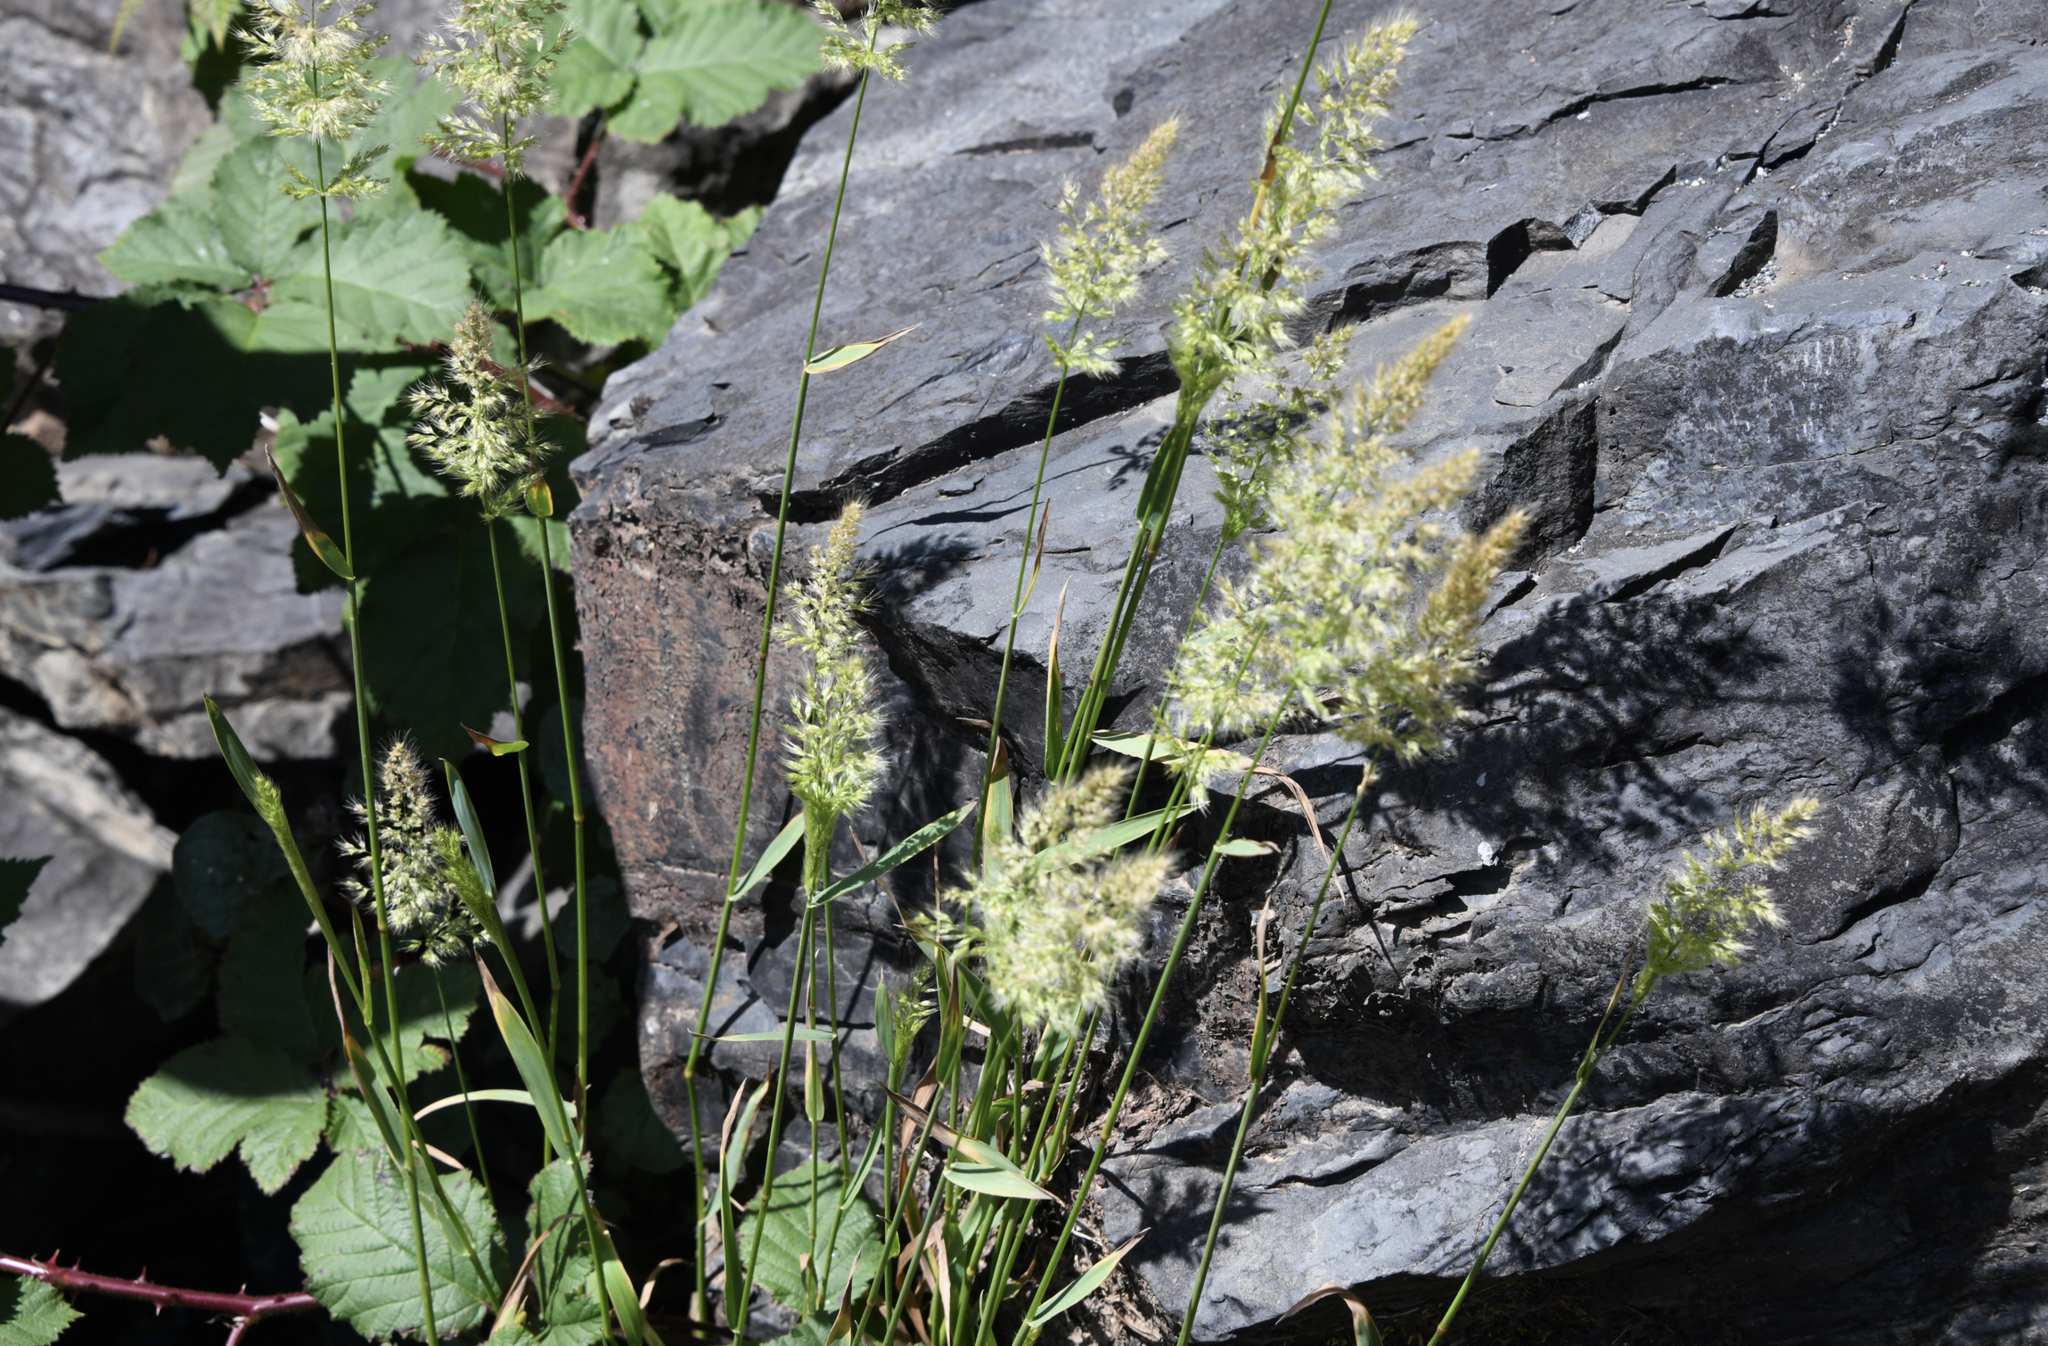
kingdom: Plantae
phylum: Tracheophyta
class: Liliopsida
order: Poales
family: Poaceae
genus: Polypogon
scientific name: Polypogon australis
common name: Chilean rabbitsfoot grass
